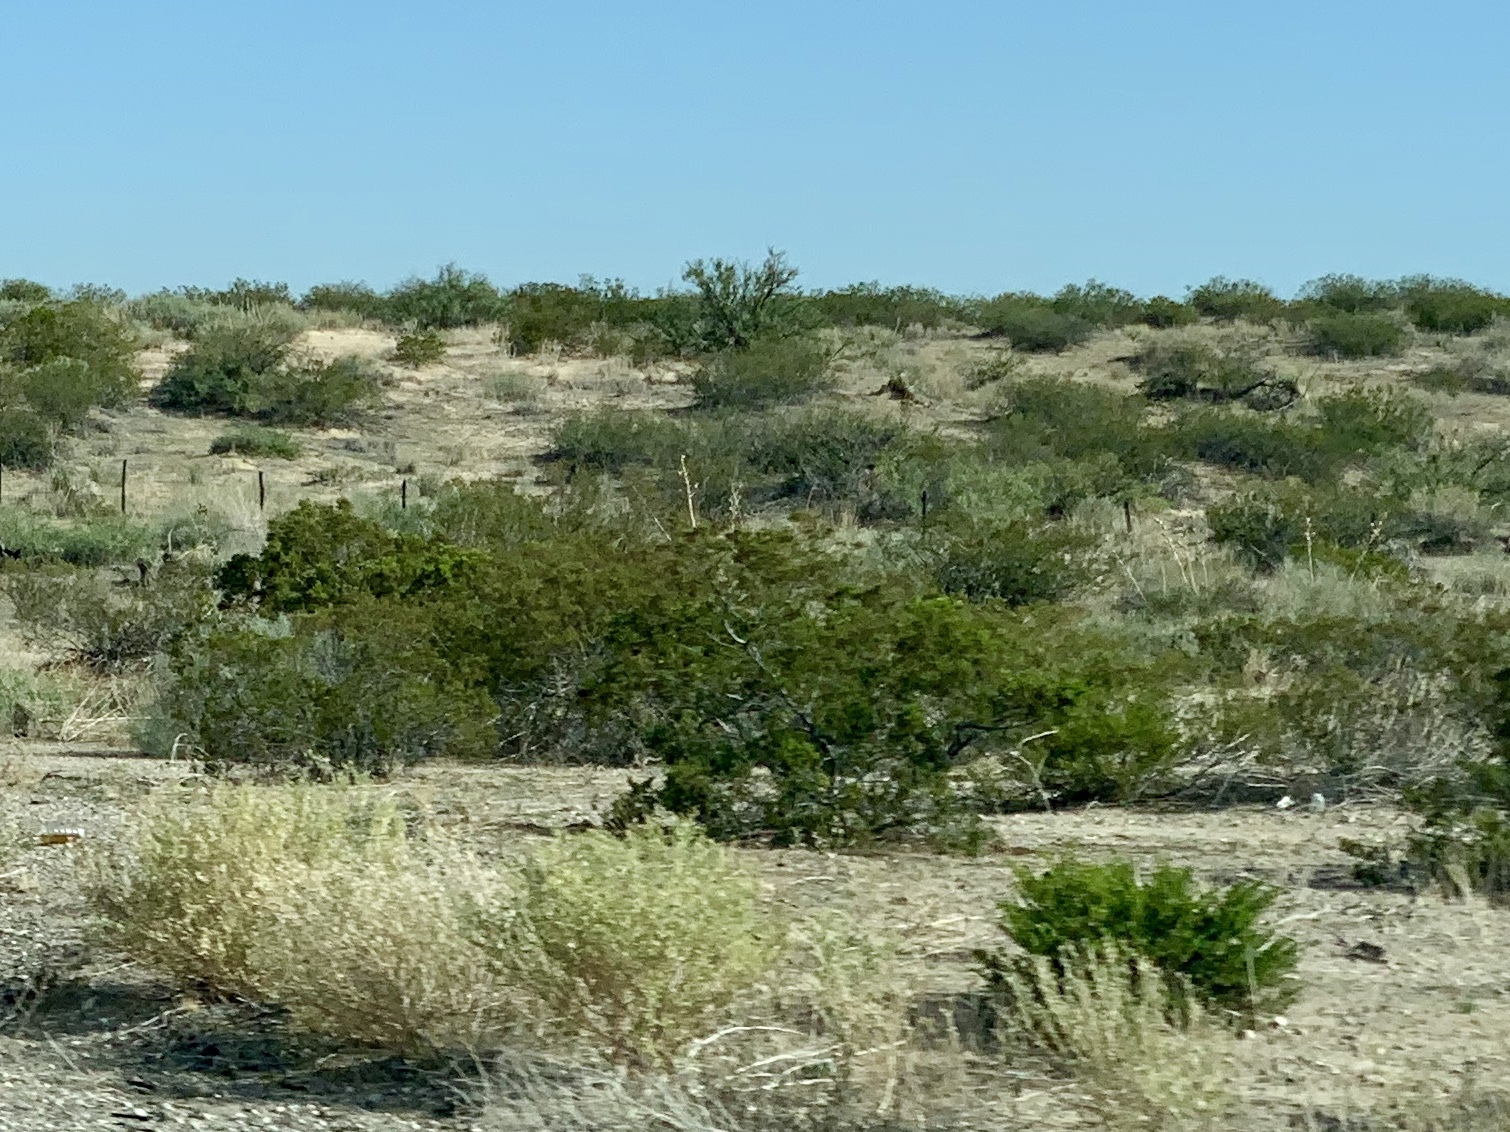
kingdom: Plantae
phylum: Tracheophyta
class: Magnoliopsida
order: Zygophyllales
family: Zygophyllaceae
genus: Larrea
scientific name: Larrea tridentata
